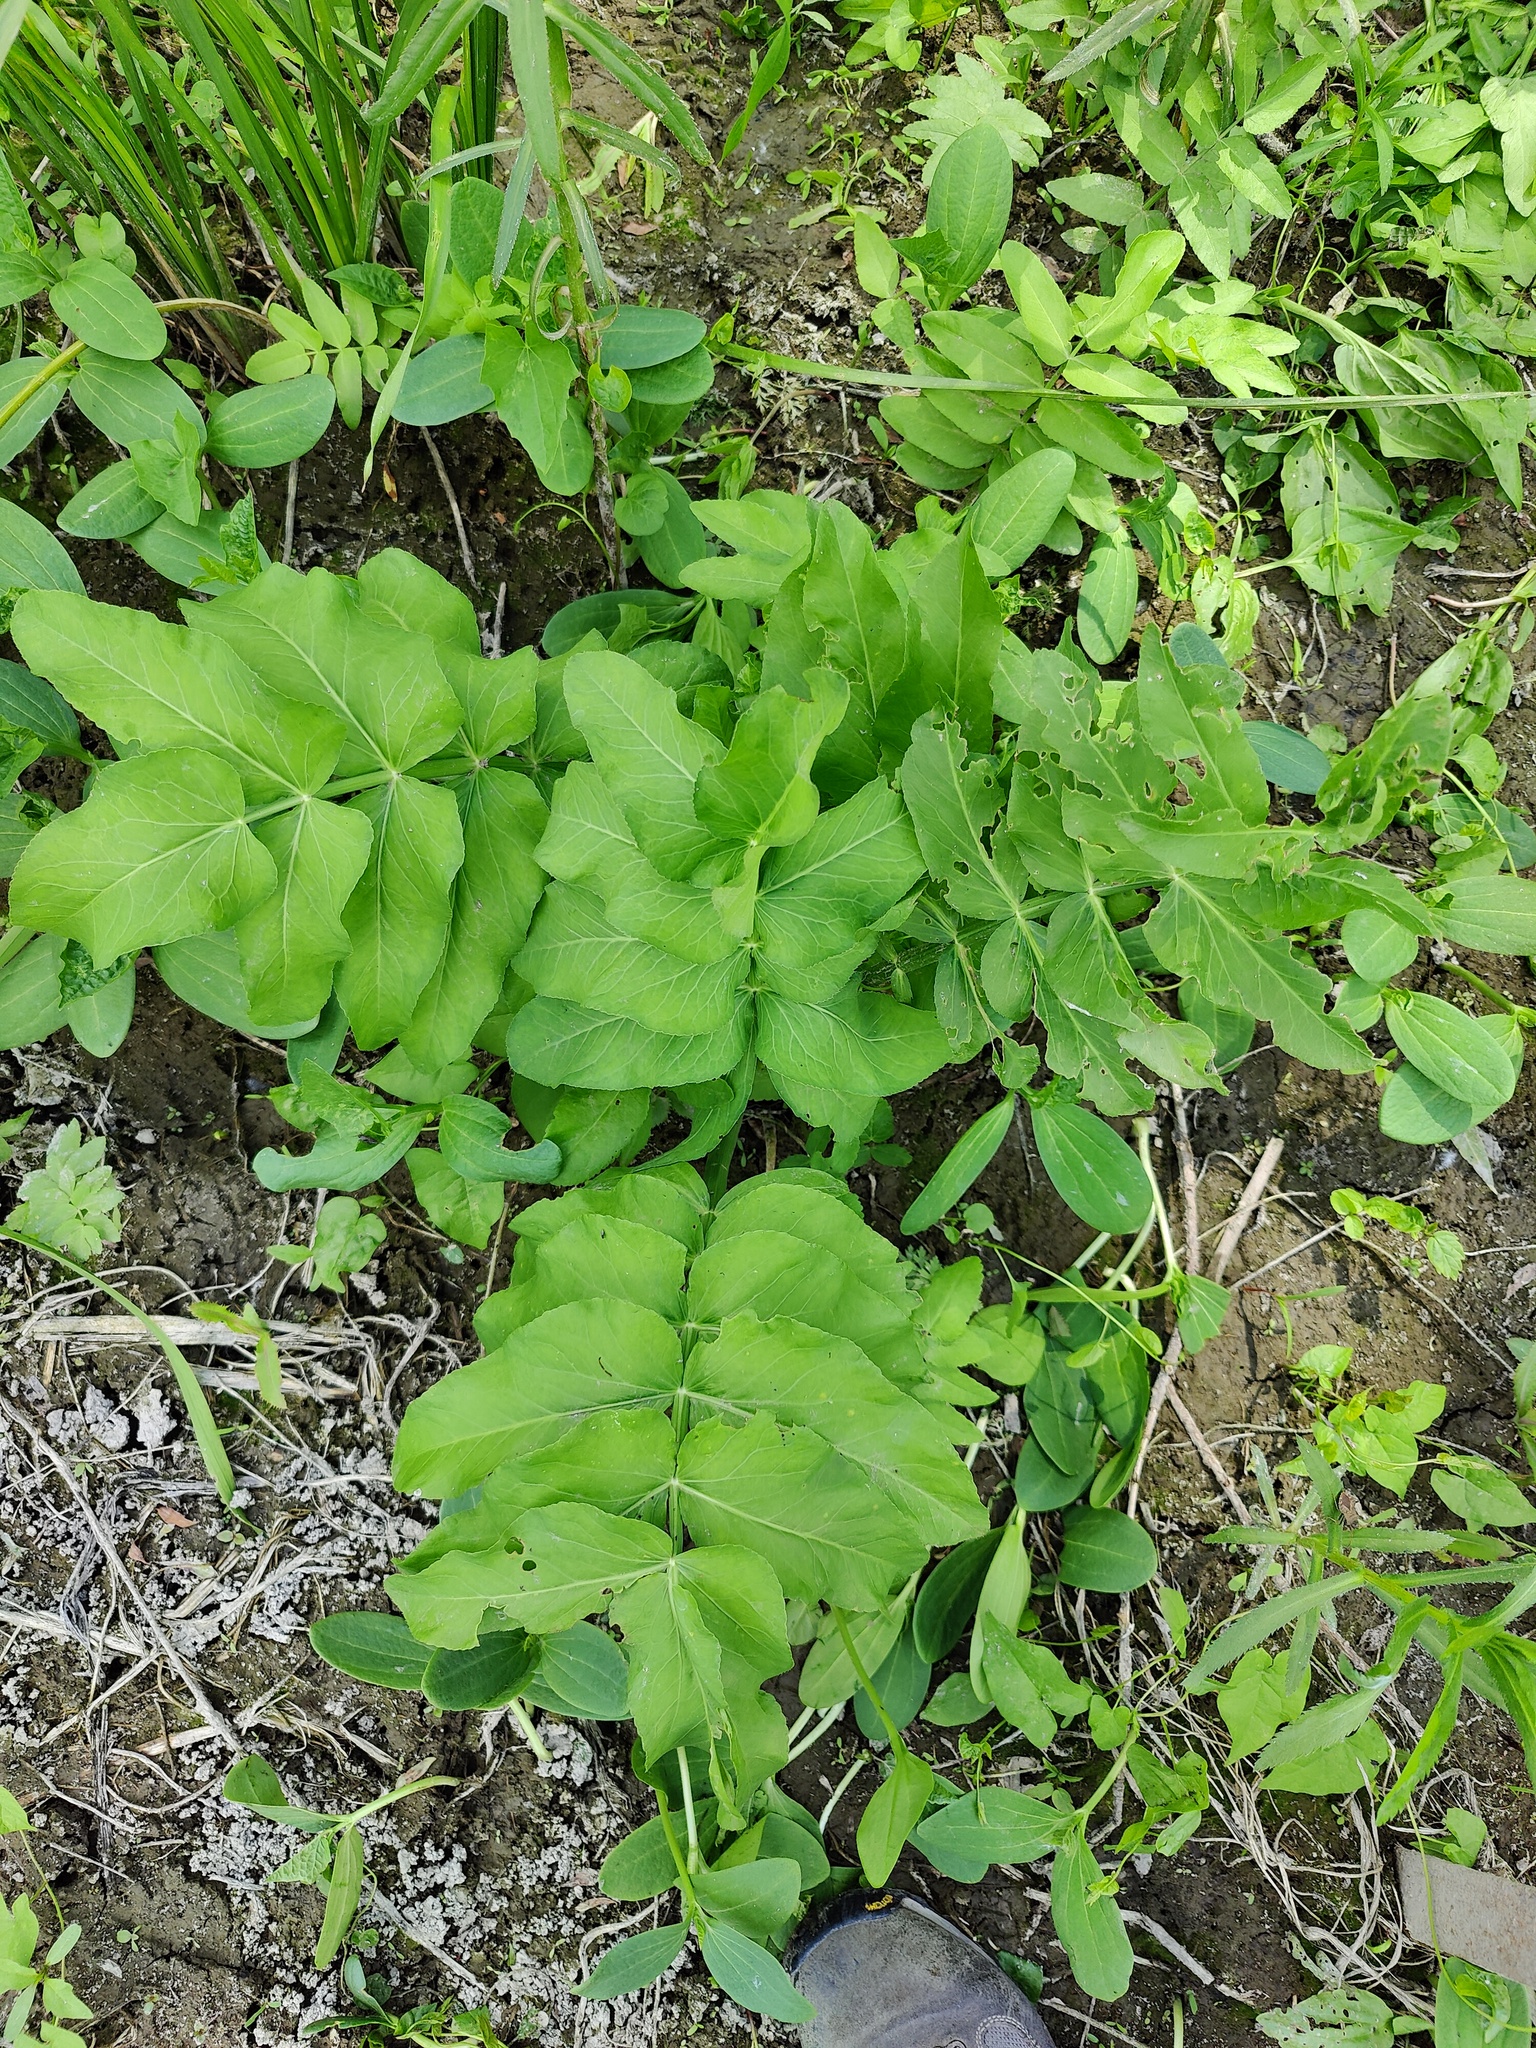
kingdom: Plantae
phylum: Tracheophyta
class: Magnoliopsida
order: Apiales
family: Apiaceae
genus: Sium
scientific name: Sium latifolium
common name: Greater water-parsnip
